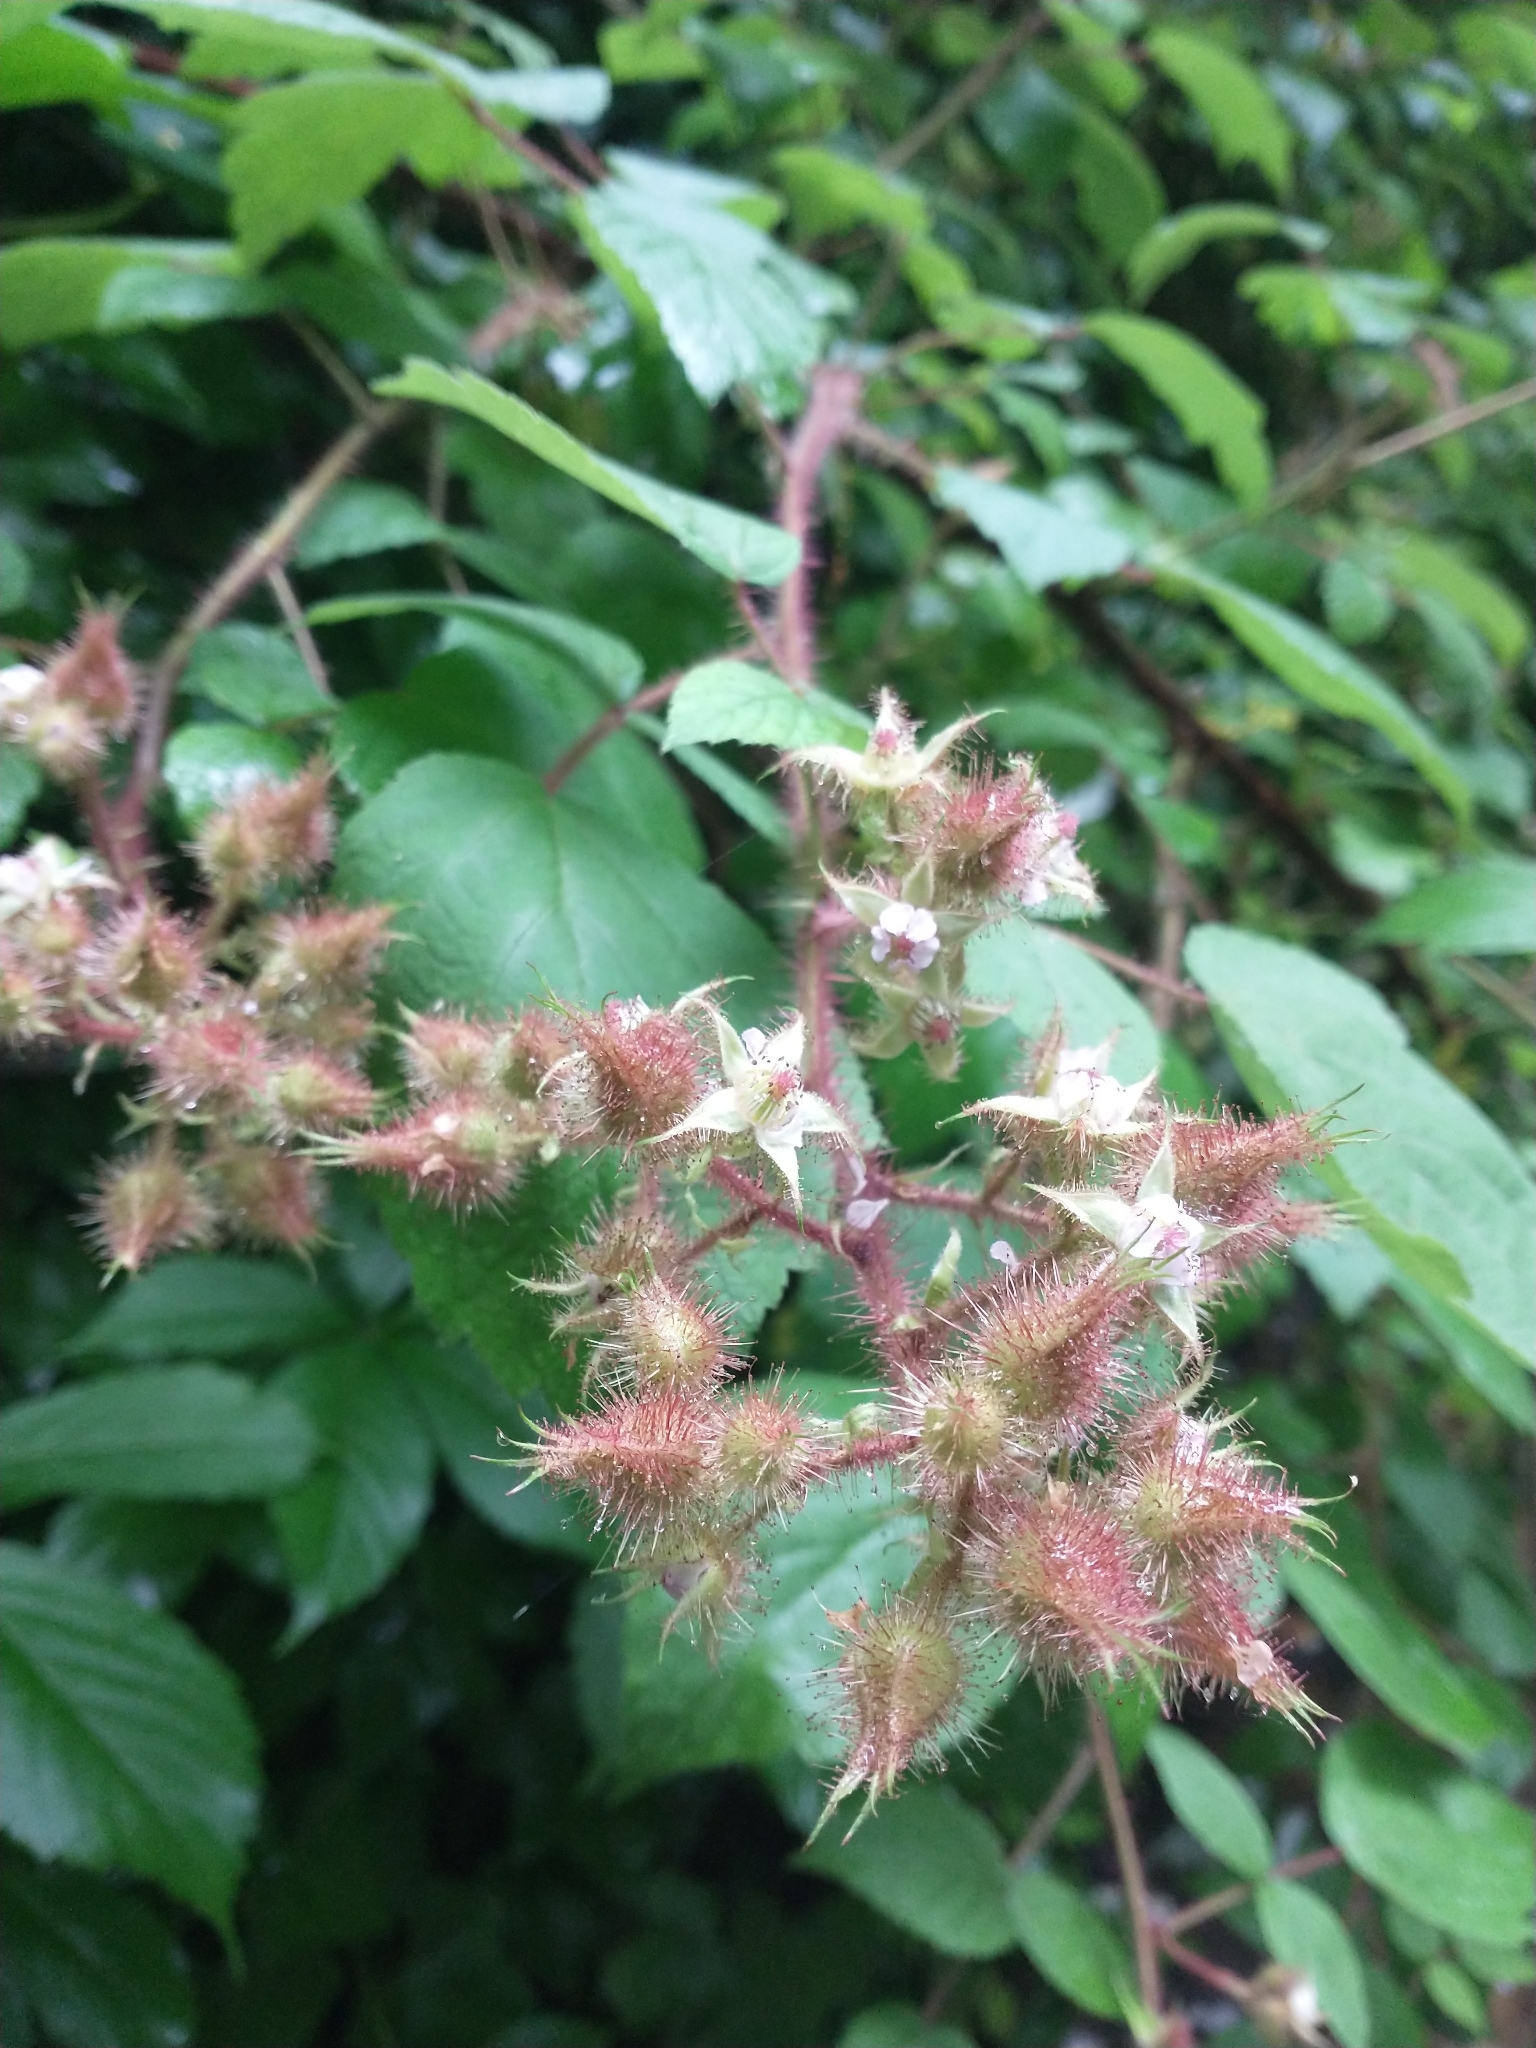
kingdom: Plantae
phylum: Tracheophyta
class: Magnoliopsida
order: Rosales
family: Rosaceae
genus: Rubus
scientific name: Rubus phoenicolasius
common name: Japanese wineberry
